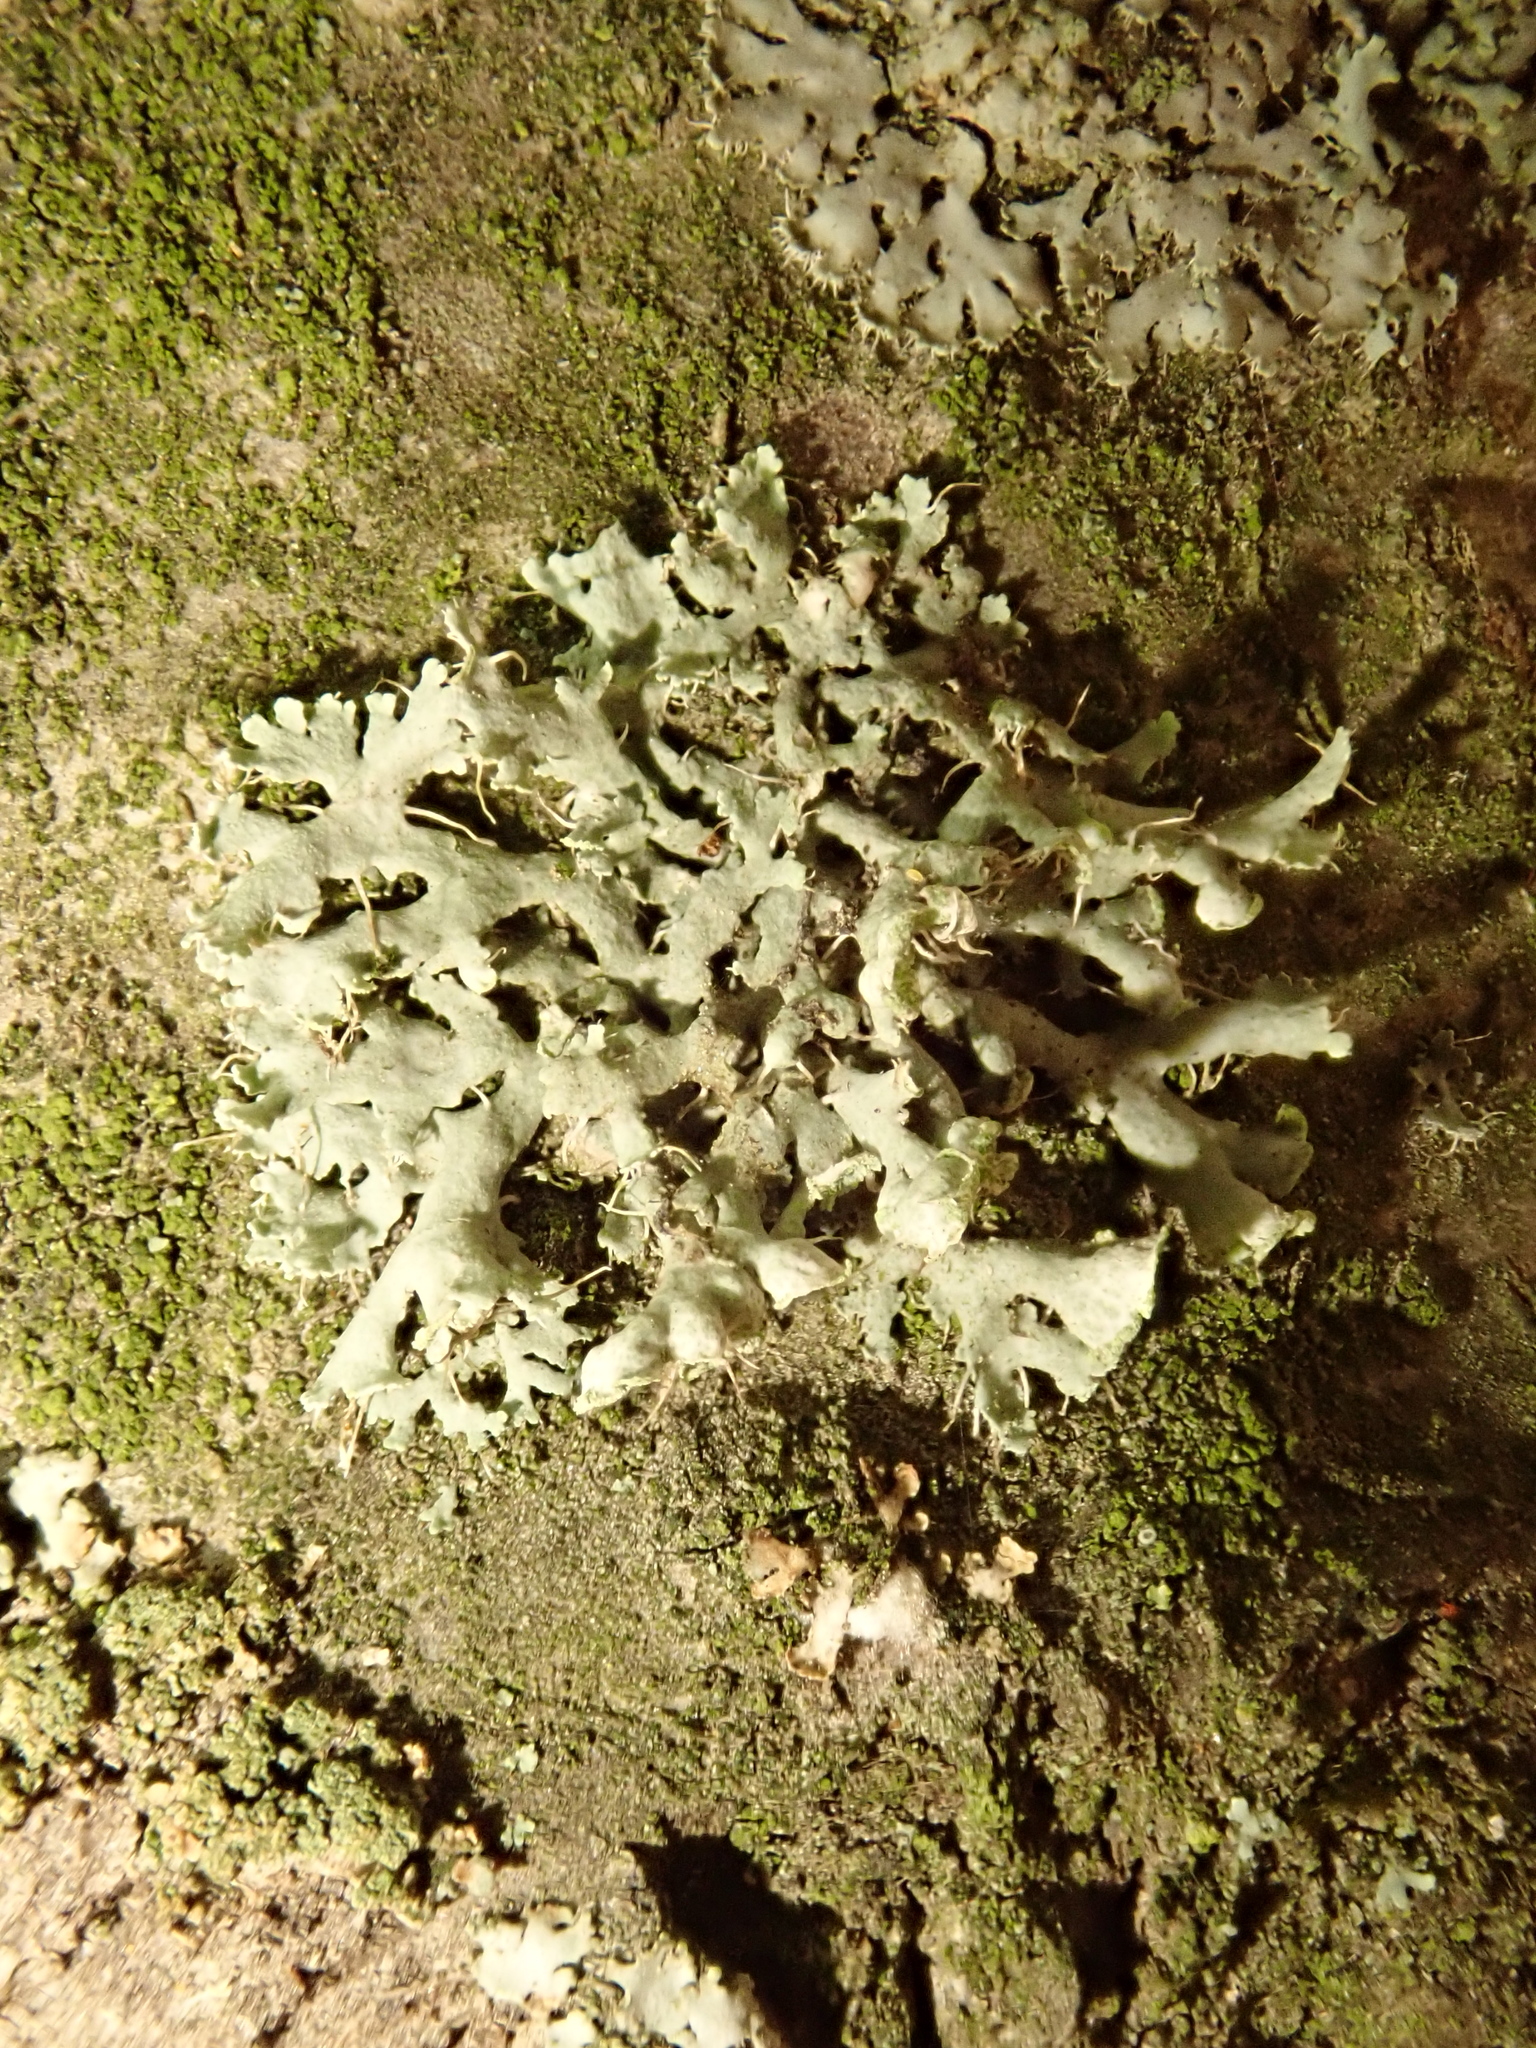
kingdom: Fungi
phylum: Ascomycota
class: Lecanoromycetes
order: Caliciales
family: Physciaceae
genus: Physcia
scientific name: Physcia adscendens
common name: Hooded rosette lichen
